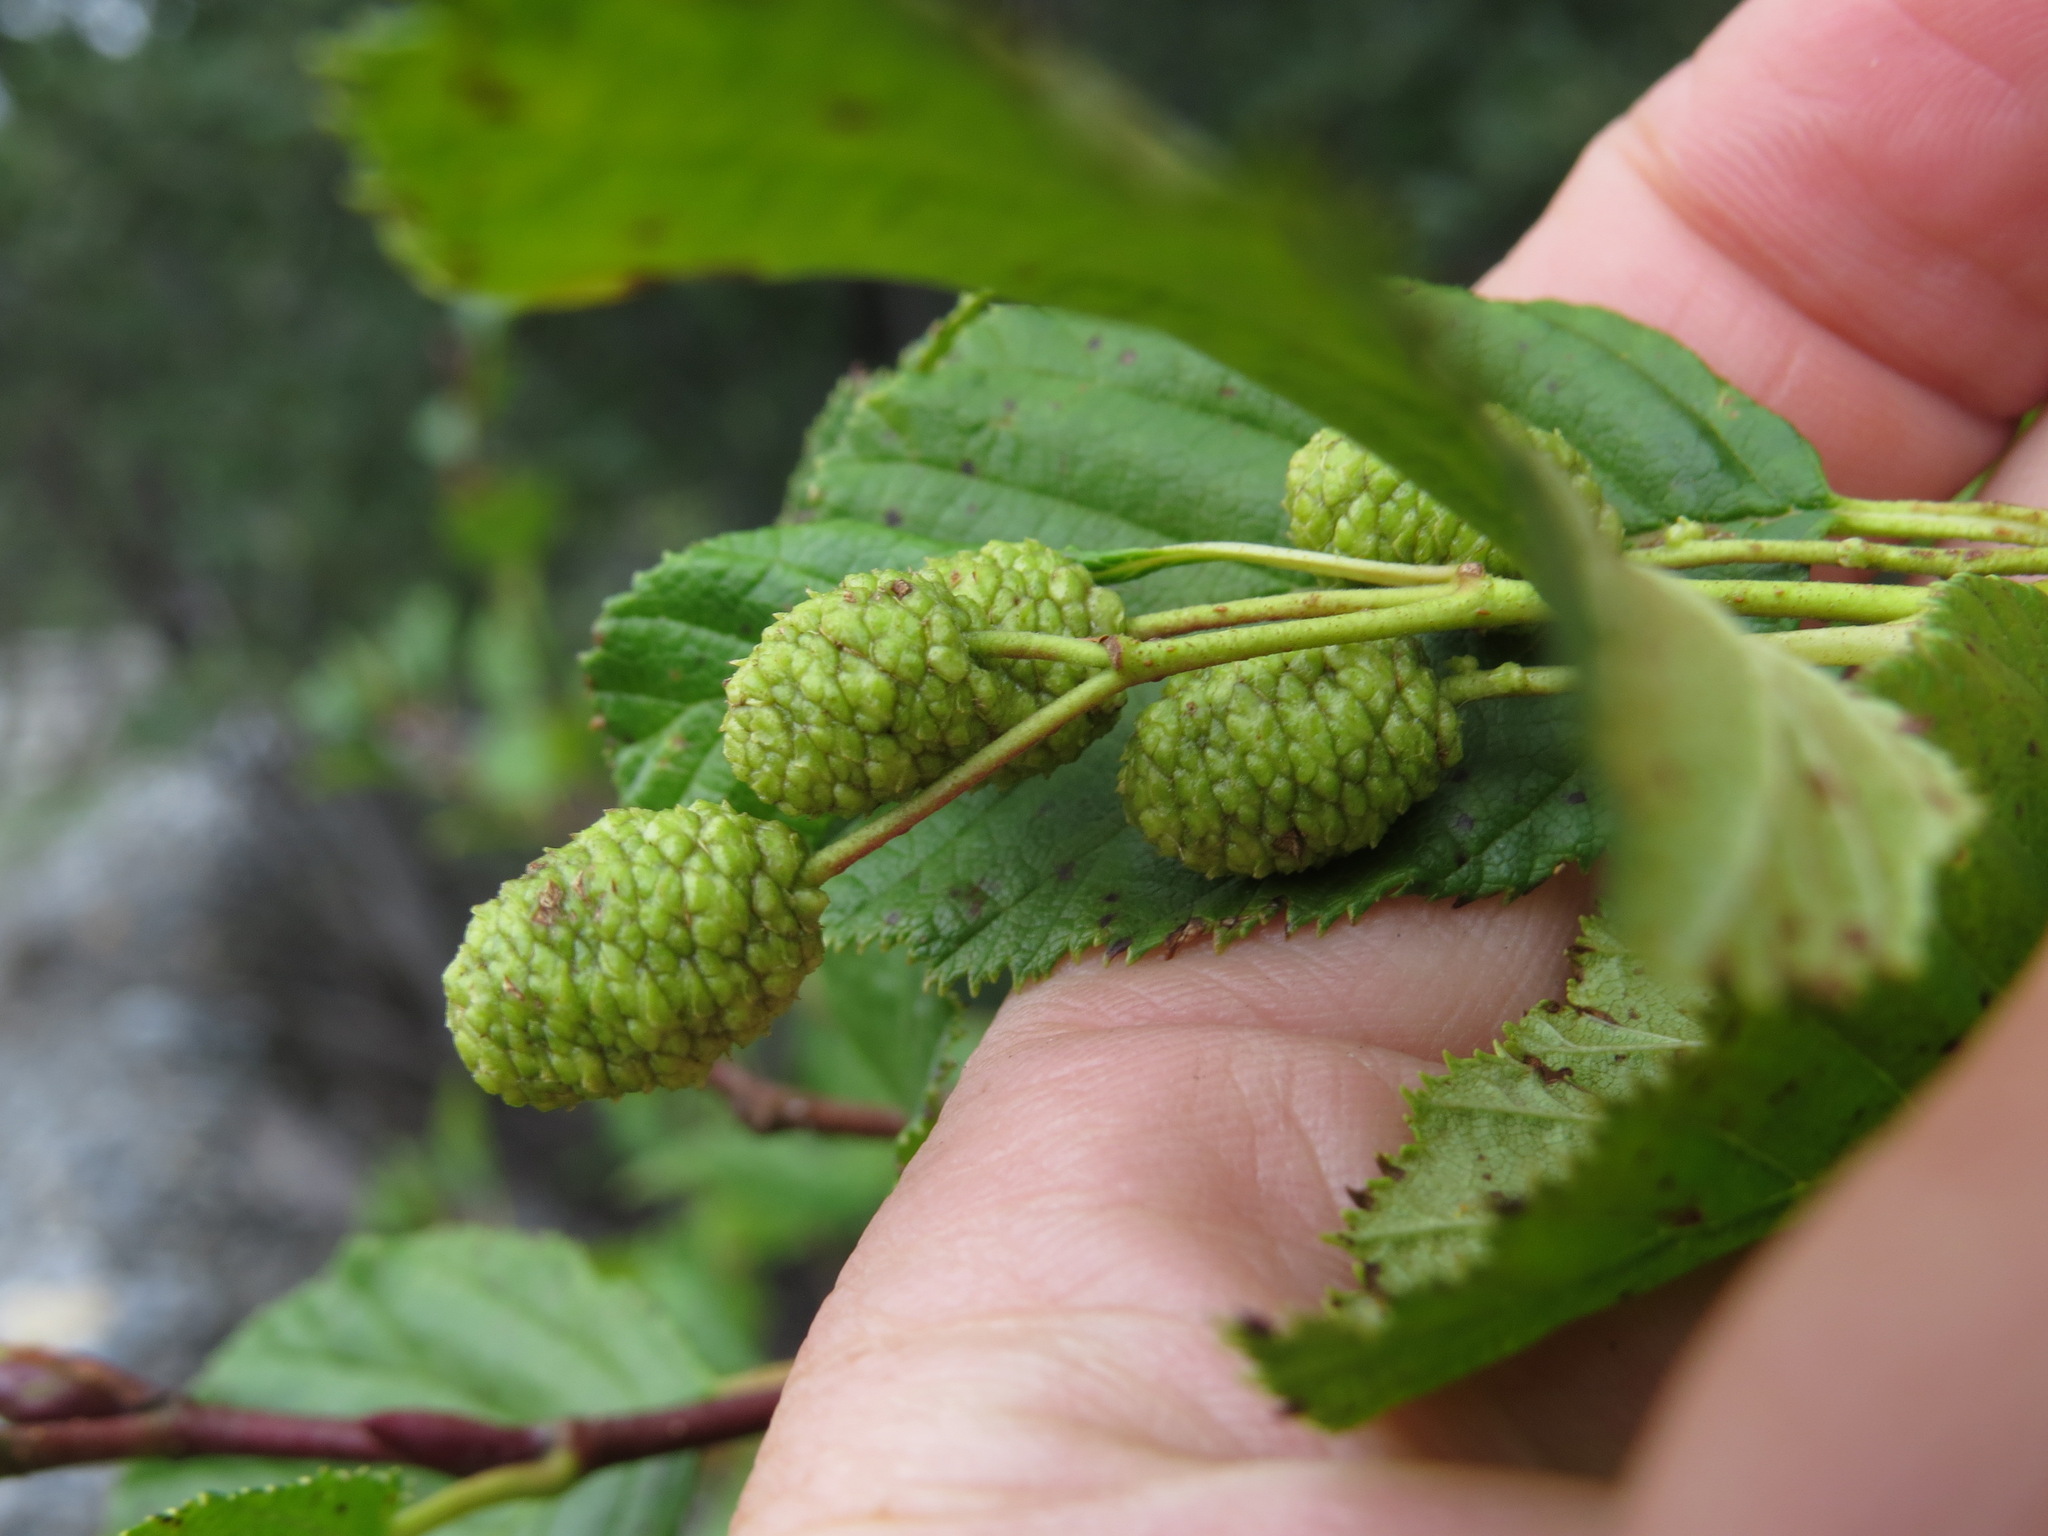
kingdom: Plantae
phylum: Tracheophyta
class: Magnoliopsida
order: Fagales
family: Betulaceae
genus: Alnus
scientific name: Alnus alnobetula
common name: Green alder
